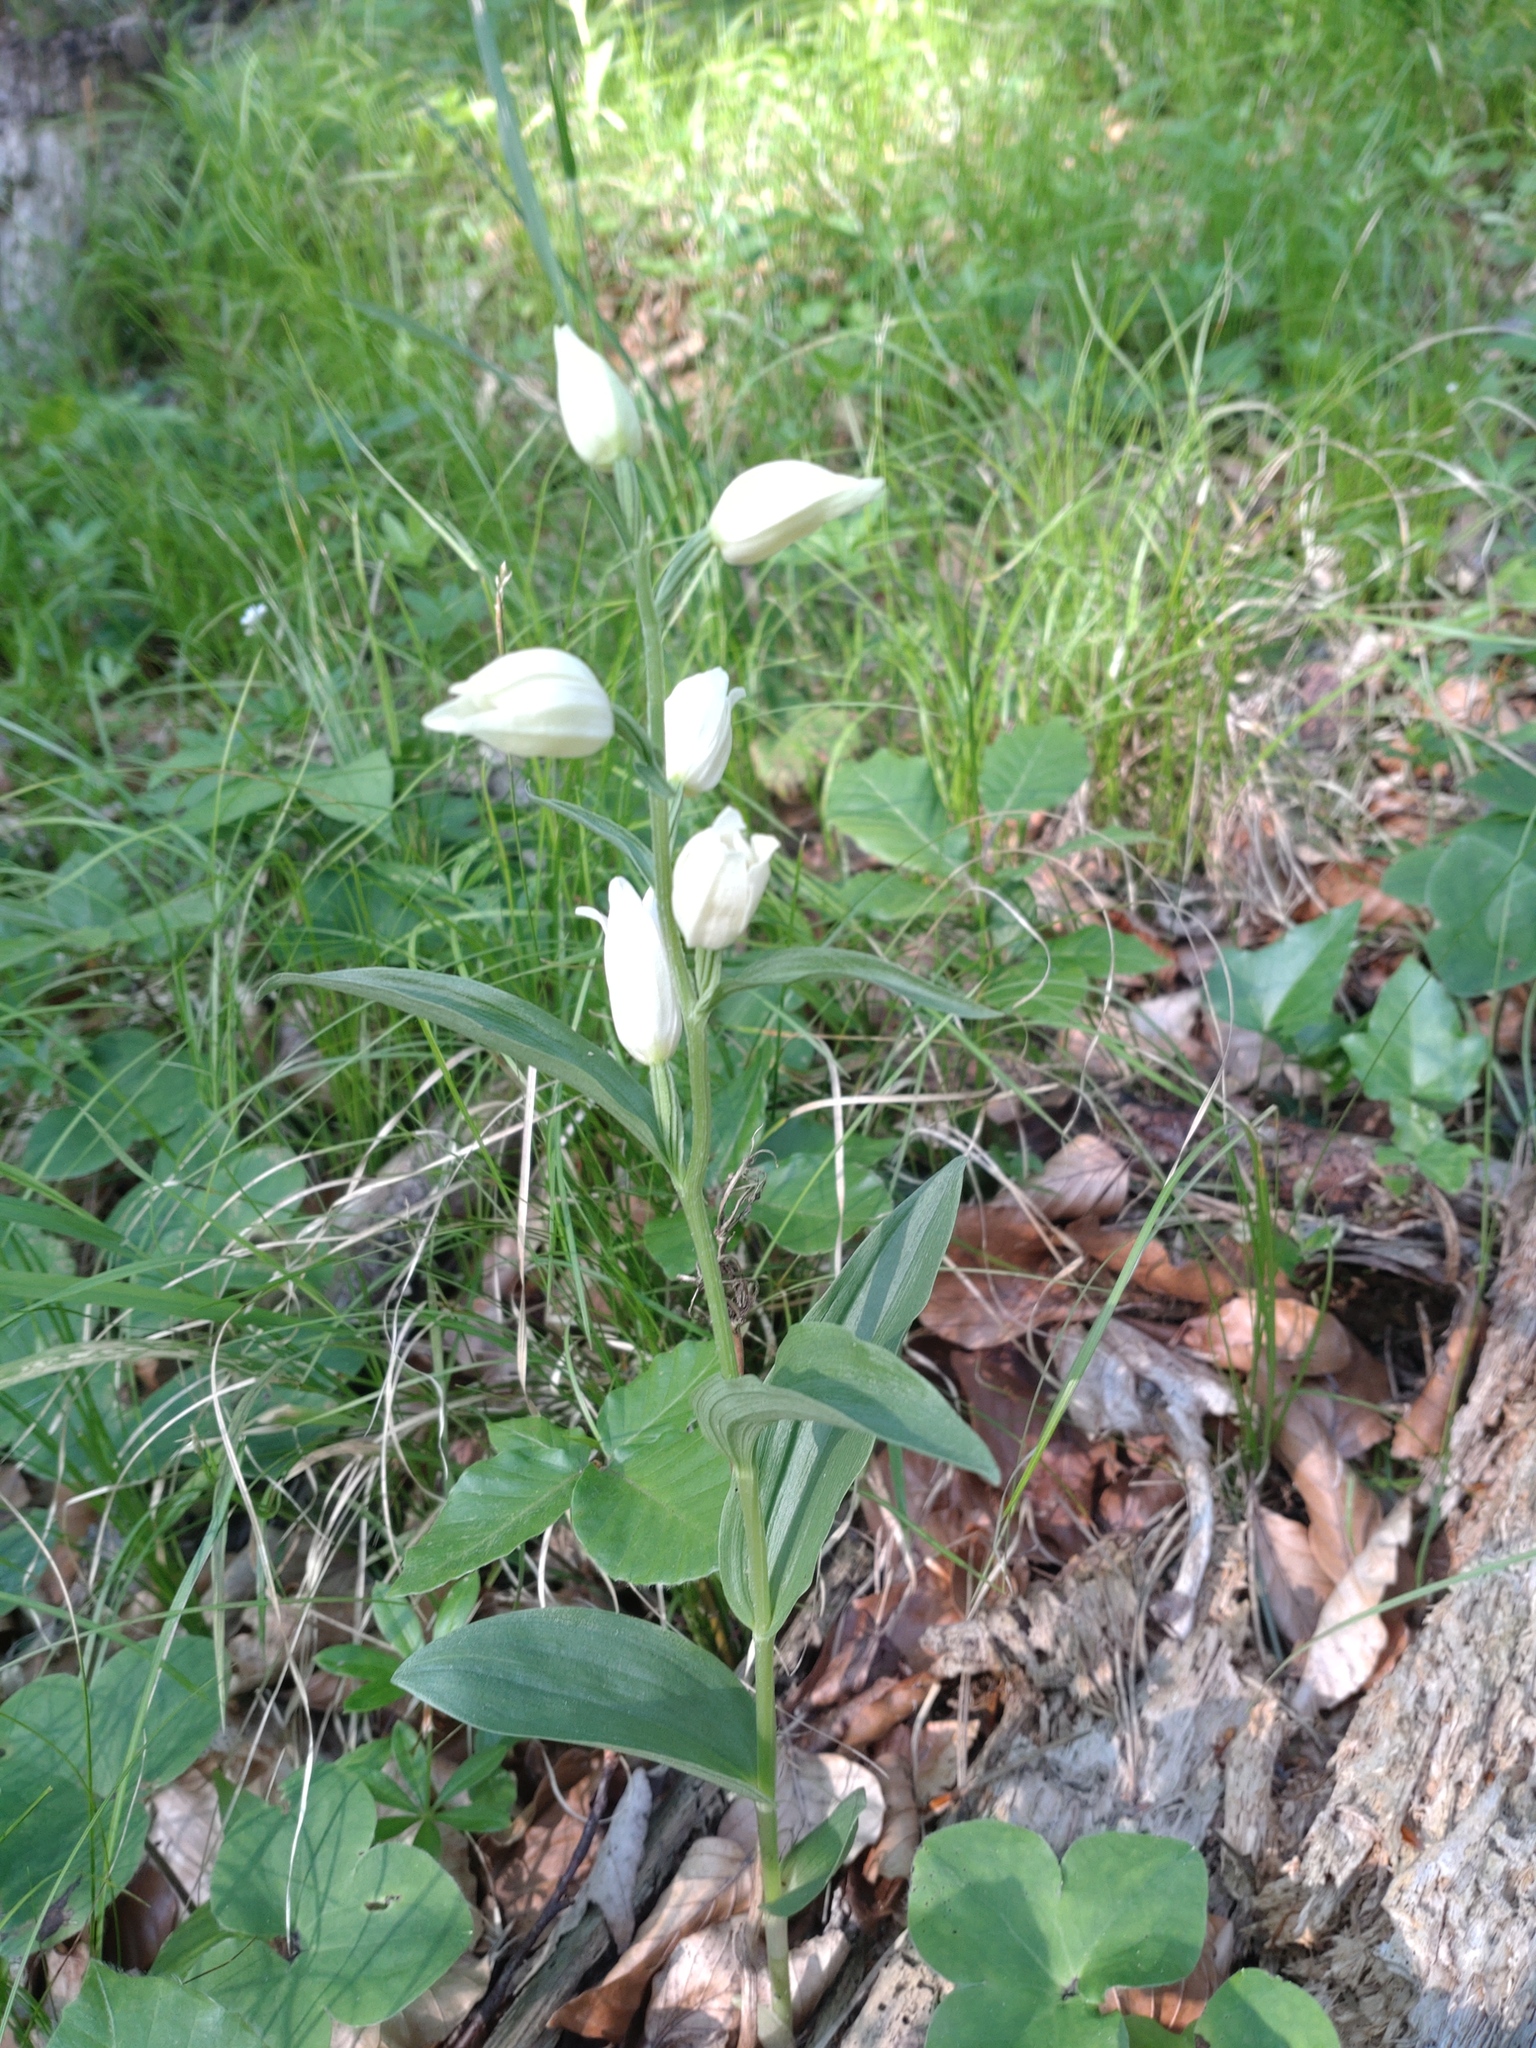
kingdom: Plantae
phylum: Tracheophyta
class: Liliopsida
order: Asparagales
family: Orchidaceae
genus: Cephalanthera
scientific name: Cephalanthera damasonium
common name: White helleborine
